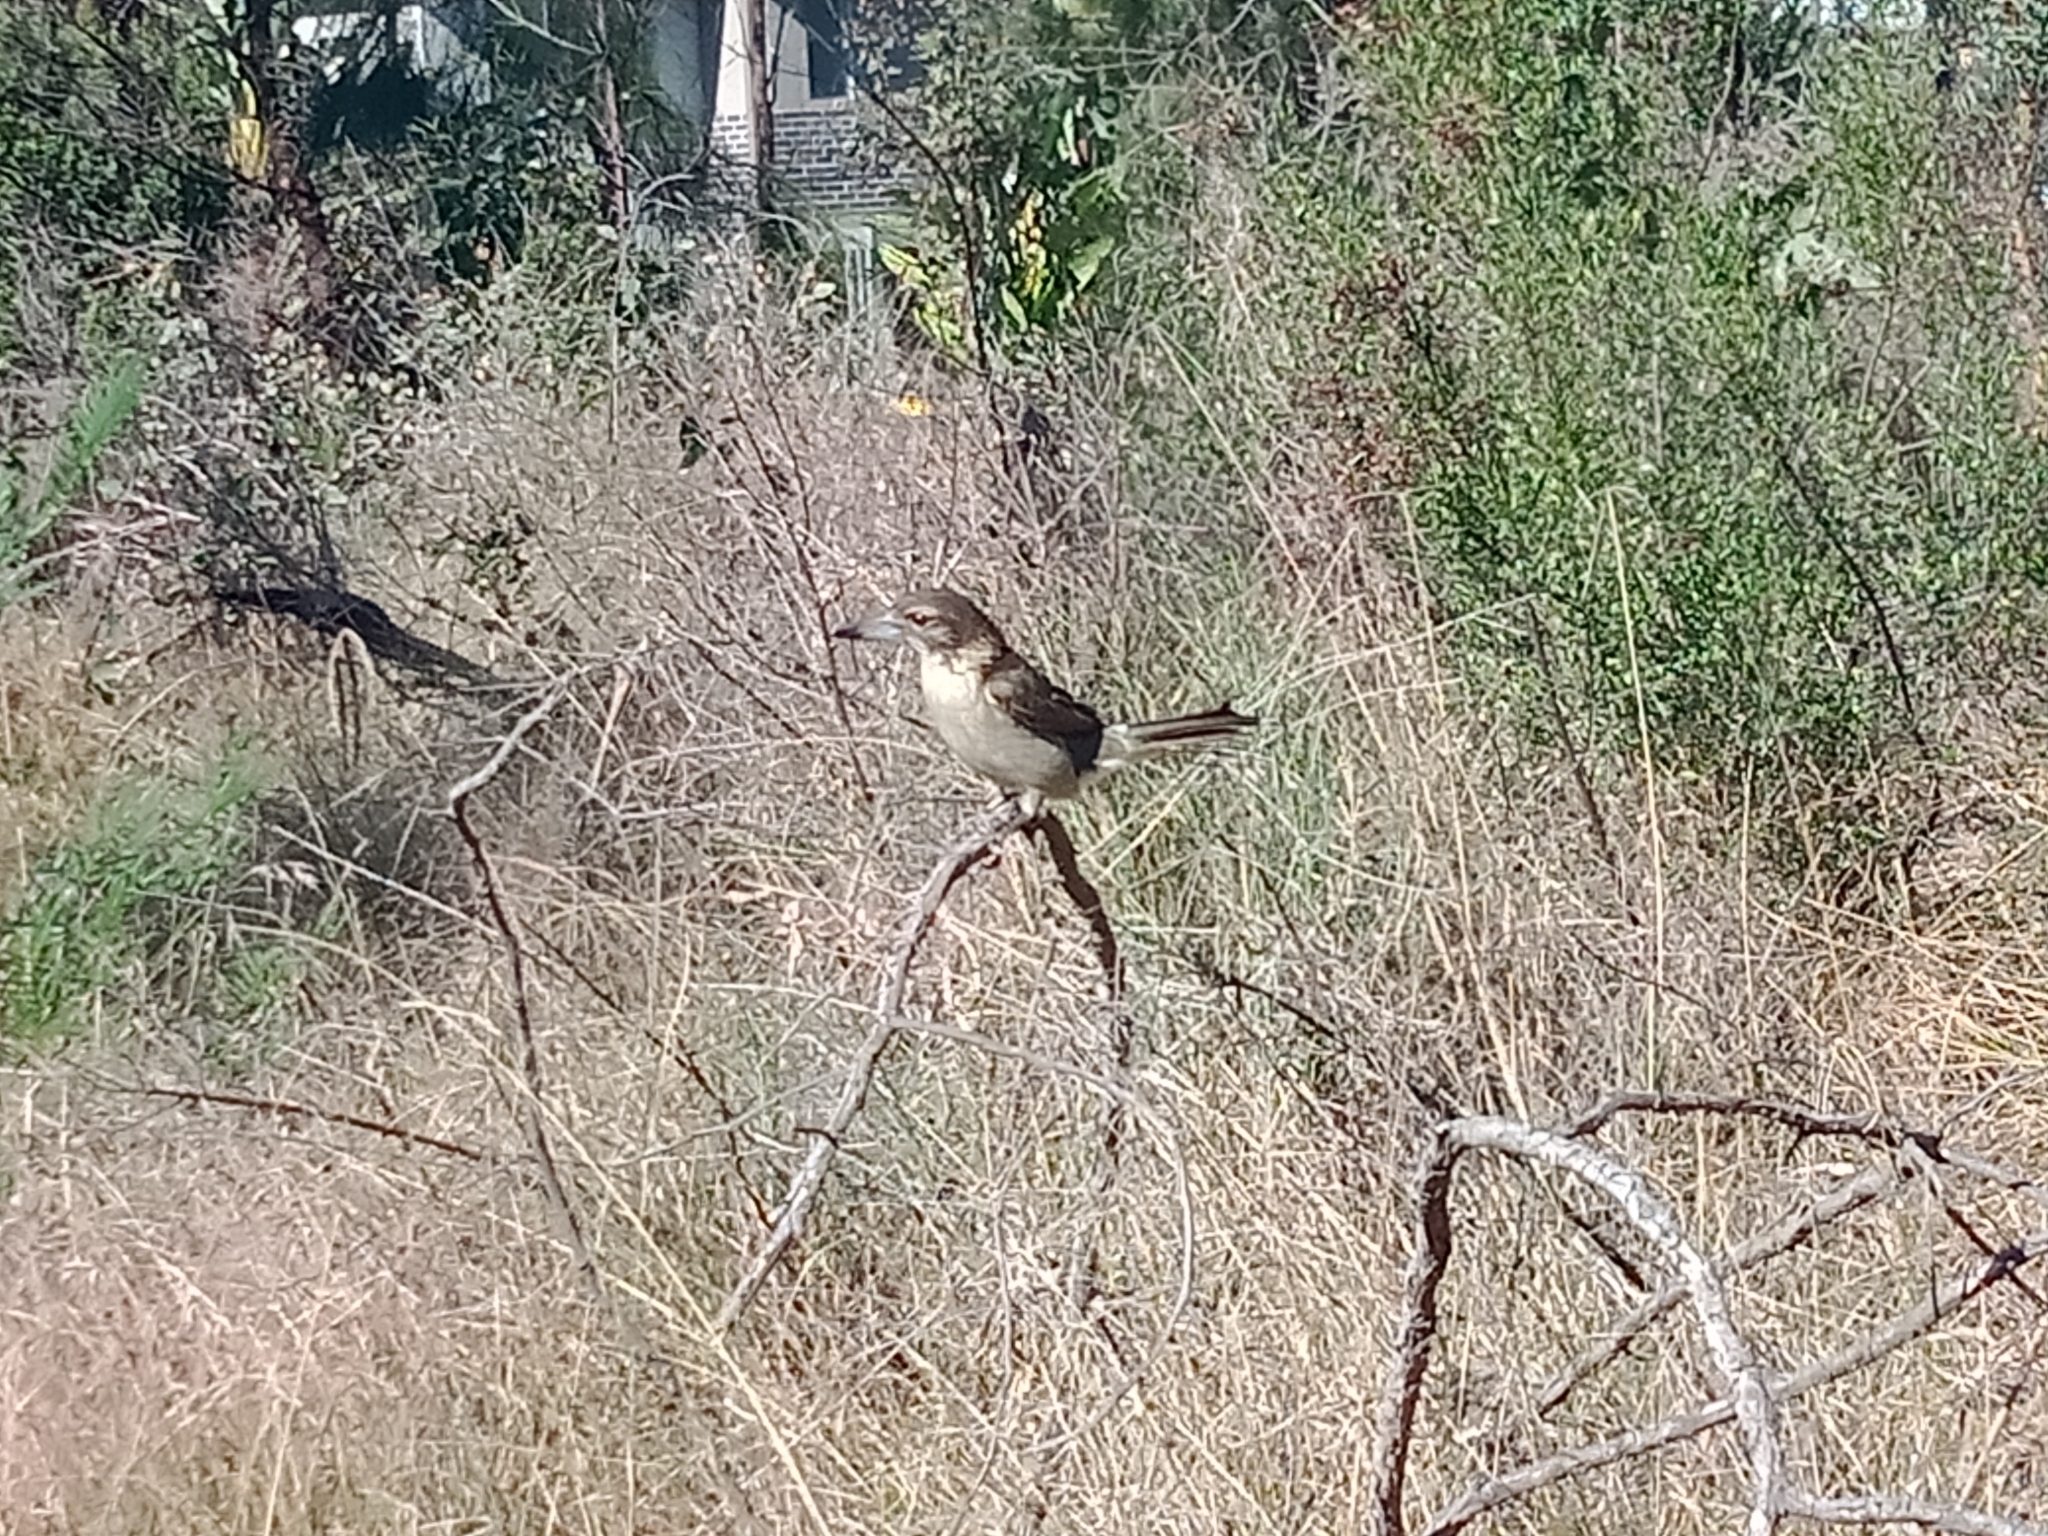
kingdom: Animalia
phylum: Chordata
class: Aves
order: Passeriformes
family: Cracticidae
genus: Cracticus
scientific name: Cracticus torquatus
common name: Grey butcherbird
